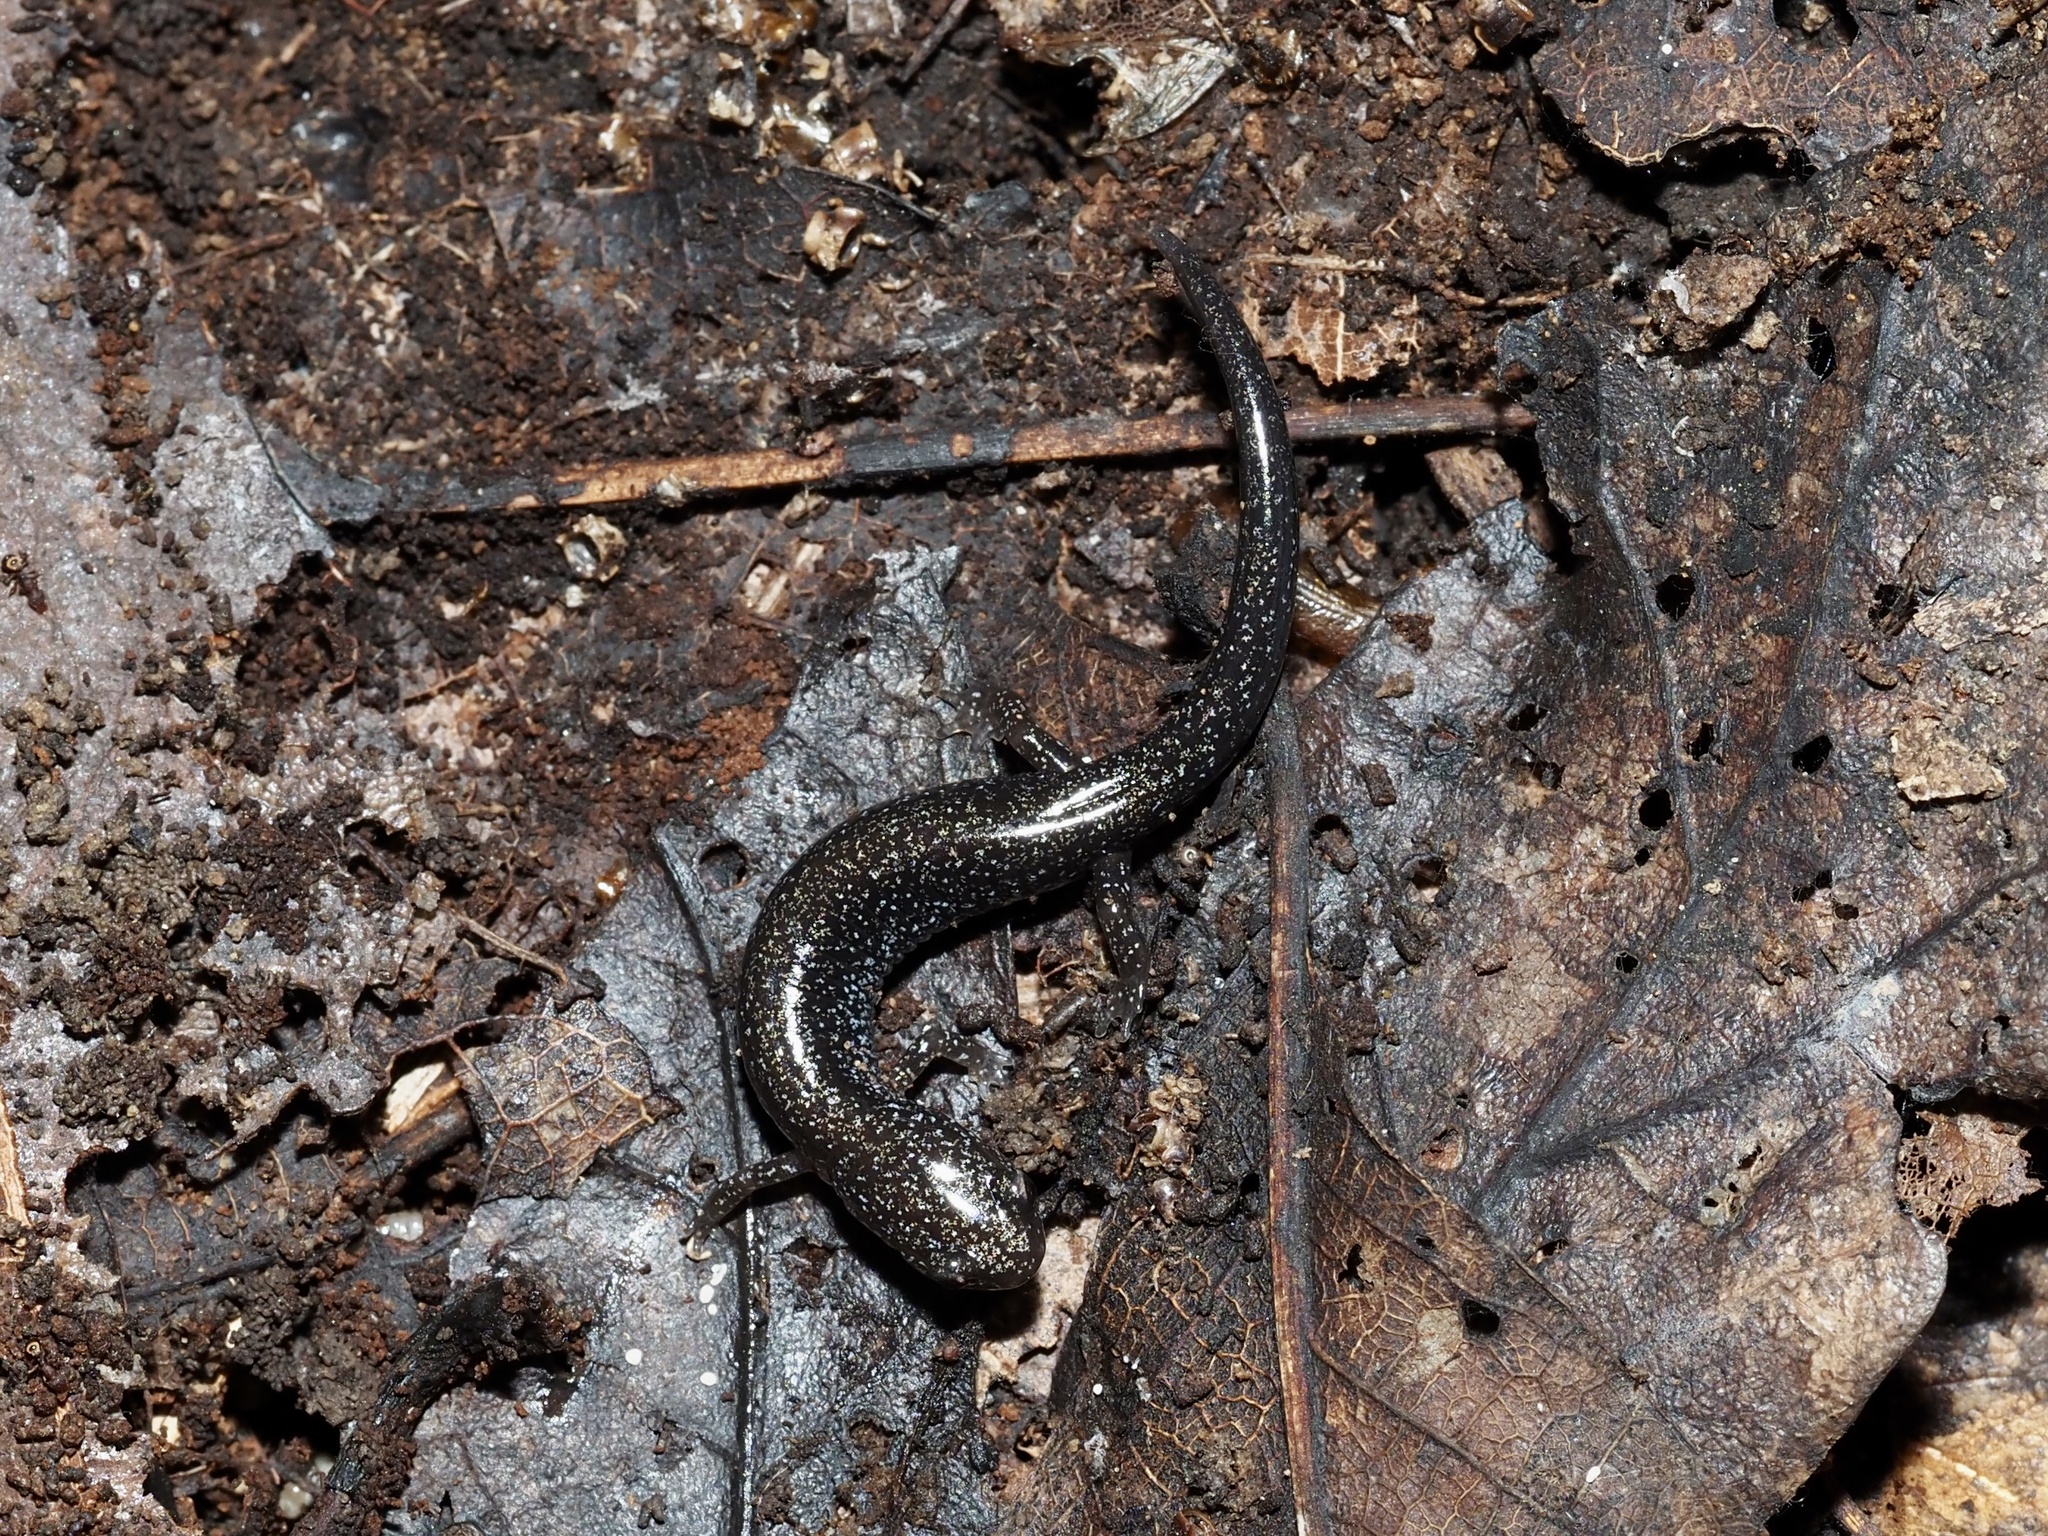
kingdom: Animalia
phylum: Chordata
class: Amphibia
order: Caudata
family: Plethodontidae
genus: Plethodon
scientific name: Plethodon cinereus
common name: Redback salamander
